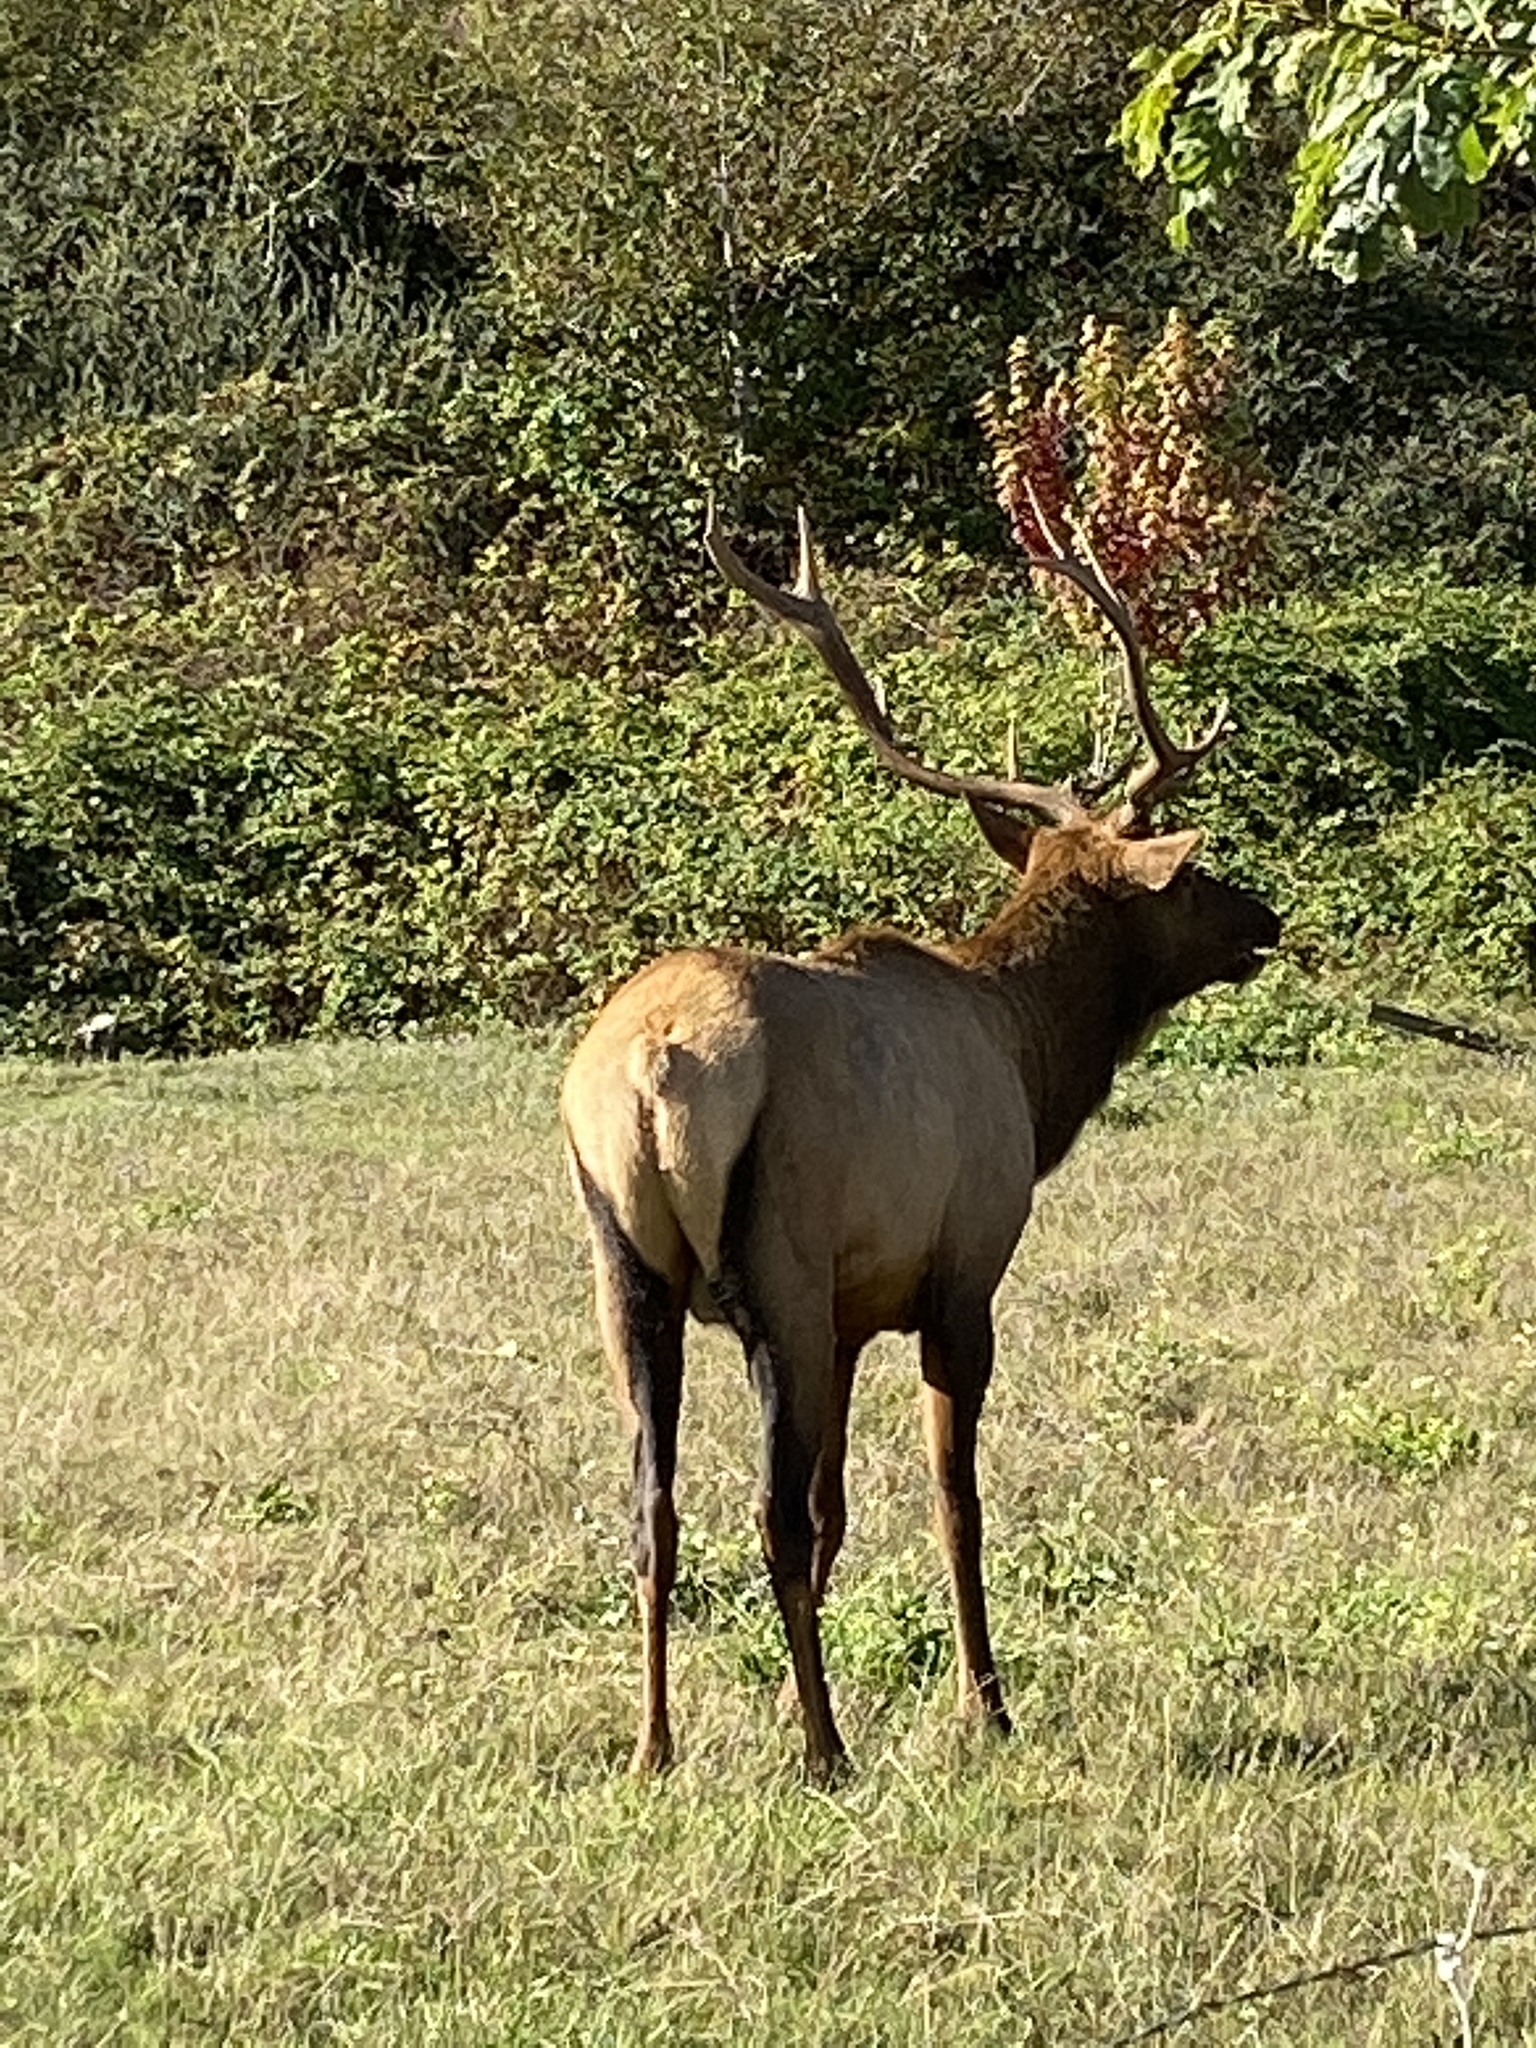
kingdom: Animalia
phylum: Chordata
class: Mammalia
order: Artiodactyla
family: Cervidae
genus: Cervus
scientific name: Cervus elaphus
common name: Red deer
